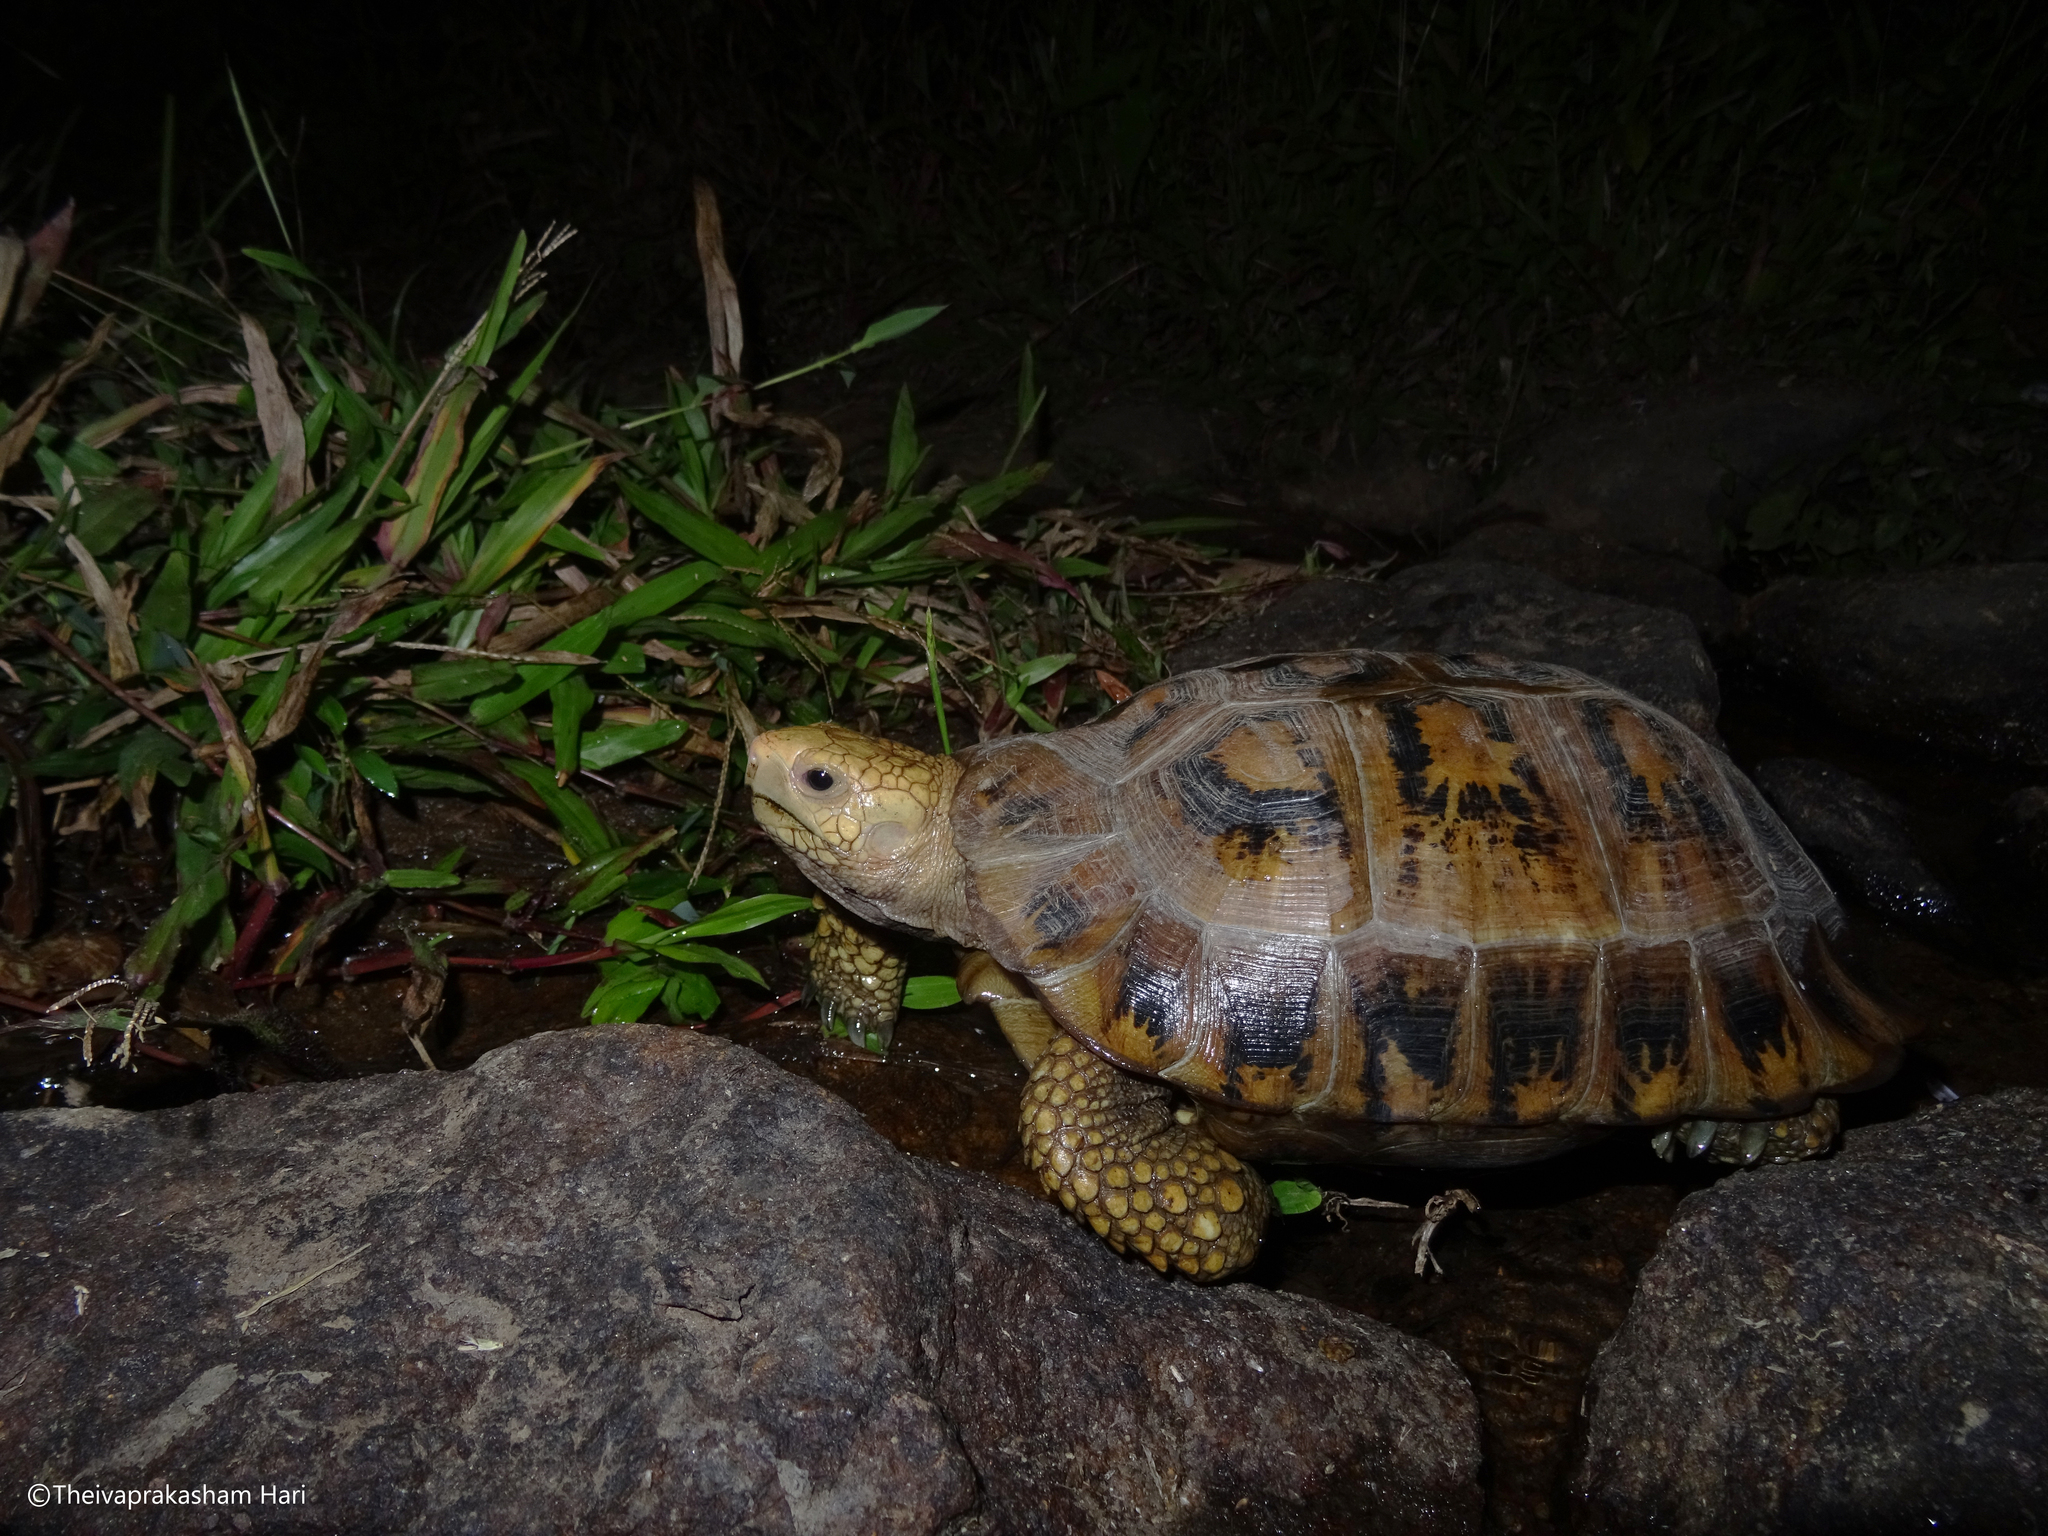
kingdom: Animalia
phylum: Chordata
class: Testudines
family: Testudinidae
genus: Indotestudo
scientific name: Indotestudo travancorica
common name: Travancore tortoise
